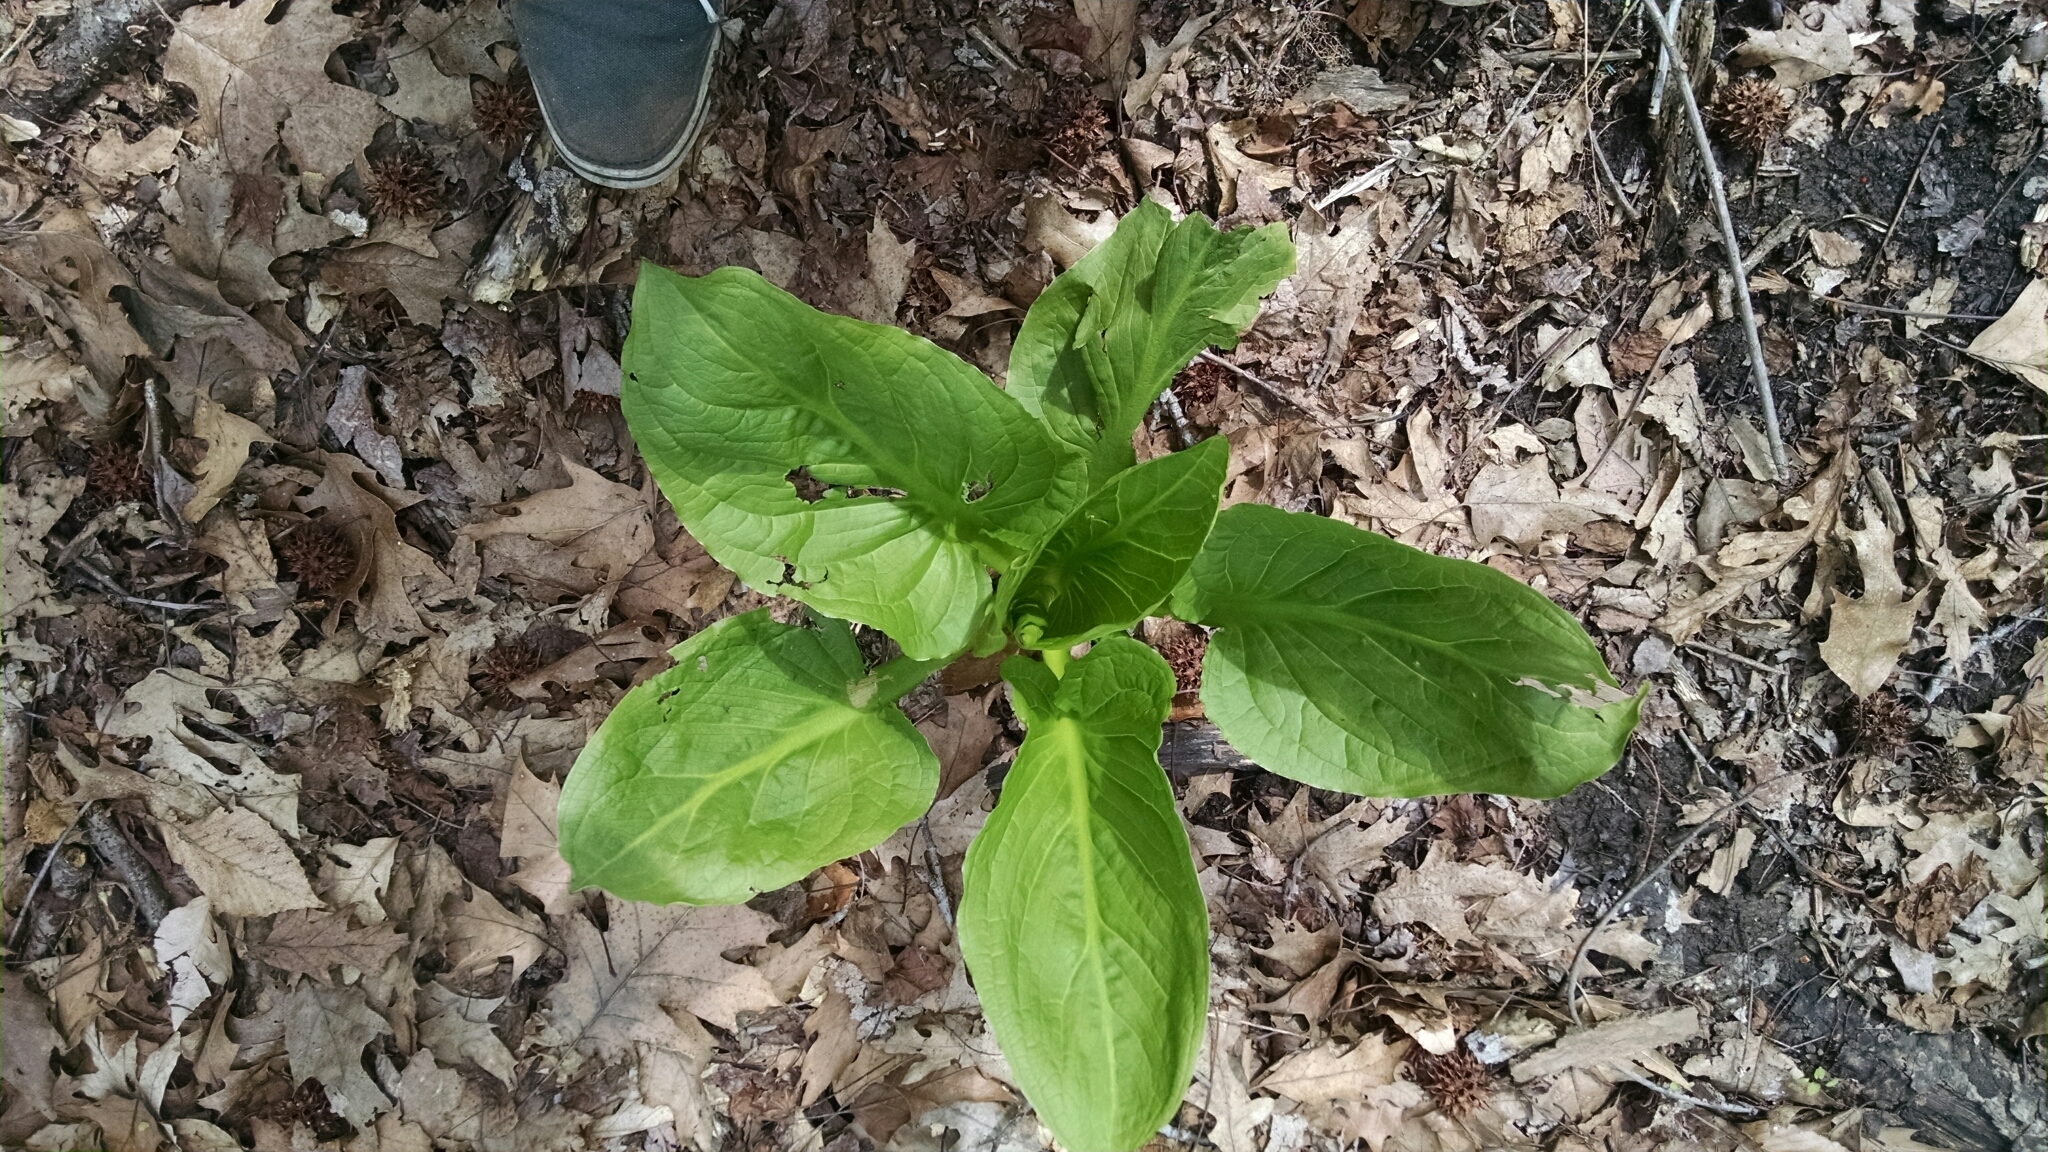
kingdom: Plantae
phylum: Tracheophyta
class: Liliopsida
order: Alismatales
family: Araceae
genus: Symplocarpus
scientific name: Symplocarpus foetidus
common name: Eastern skunk cabbage
